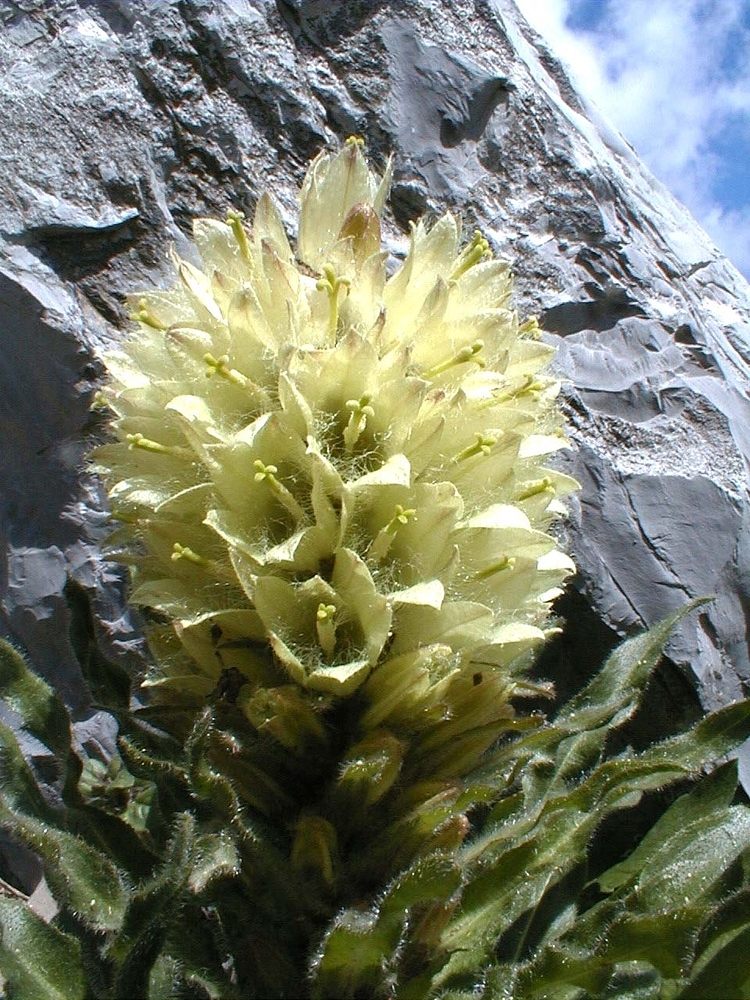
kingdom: Plantae
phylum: Tracheophyta
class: Magnoliopsida
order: Asterales
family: Campanulaceae
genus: Campanula
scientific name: Campanula thyrsoides
